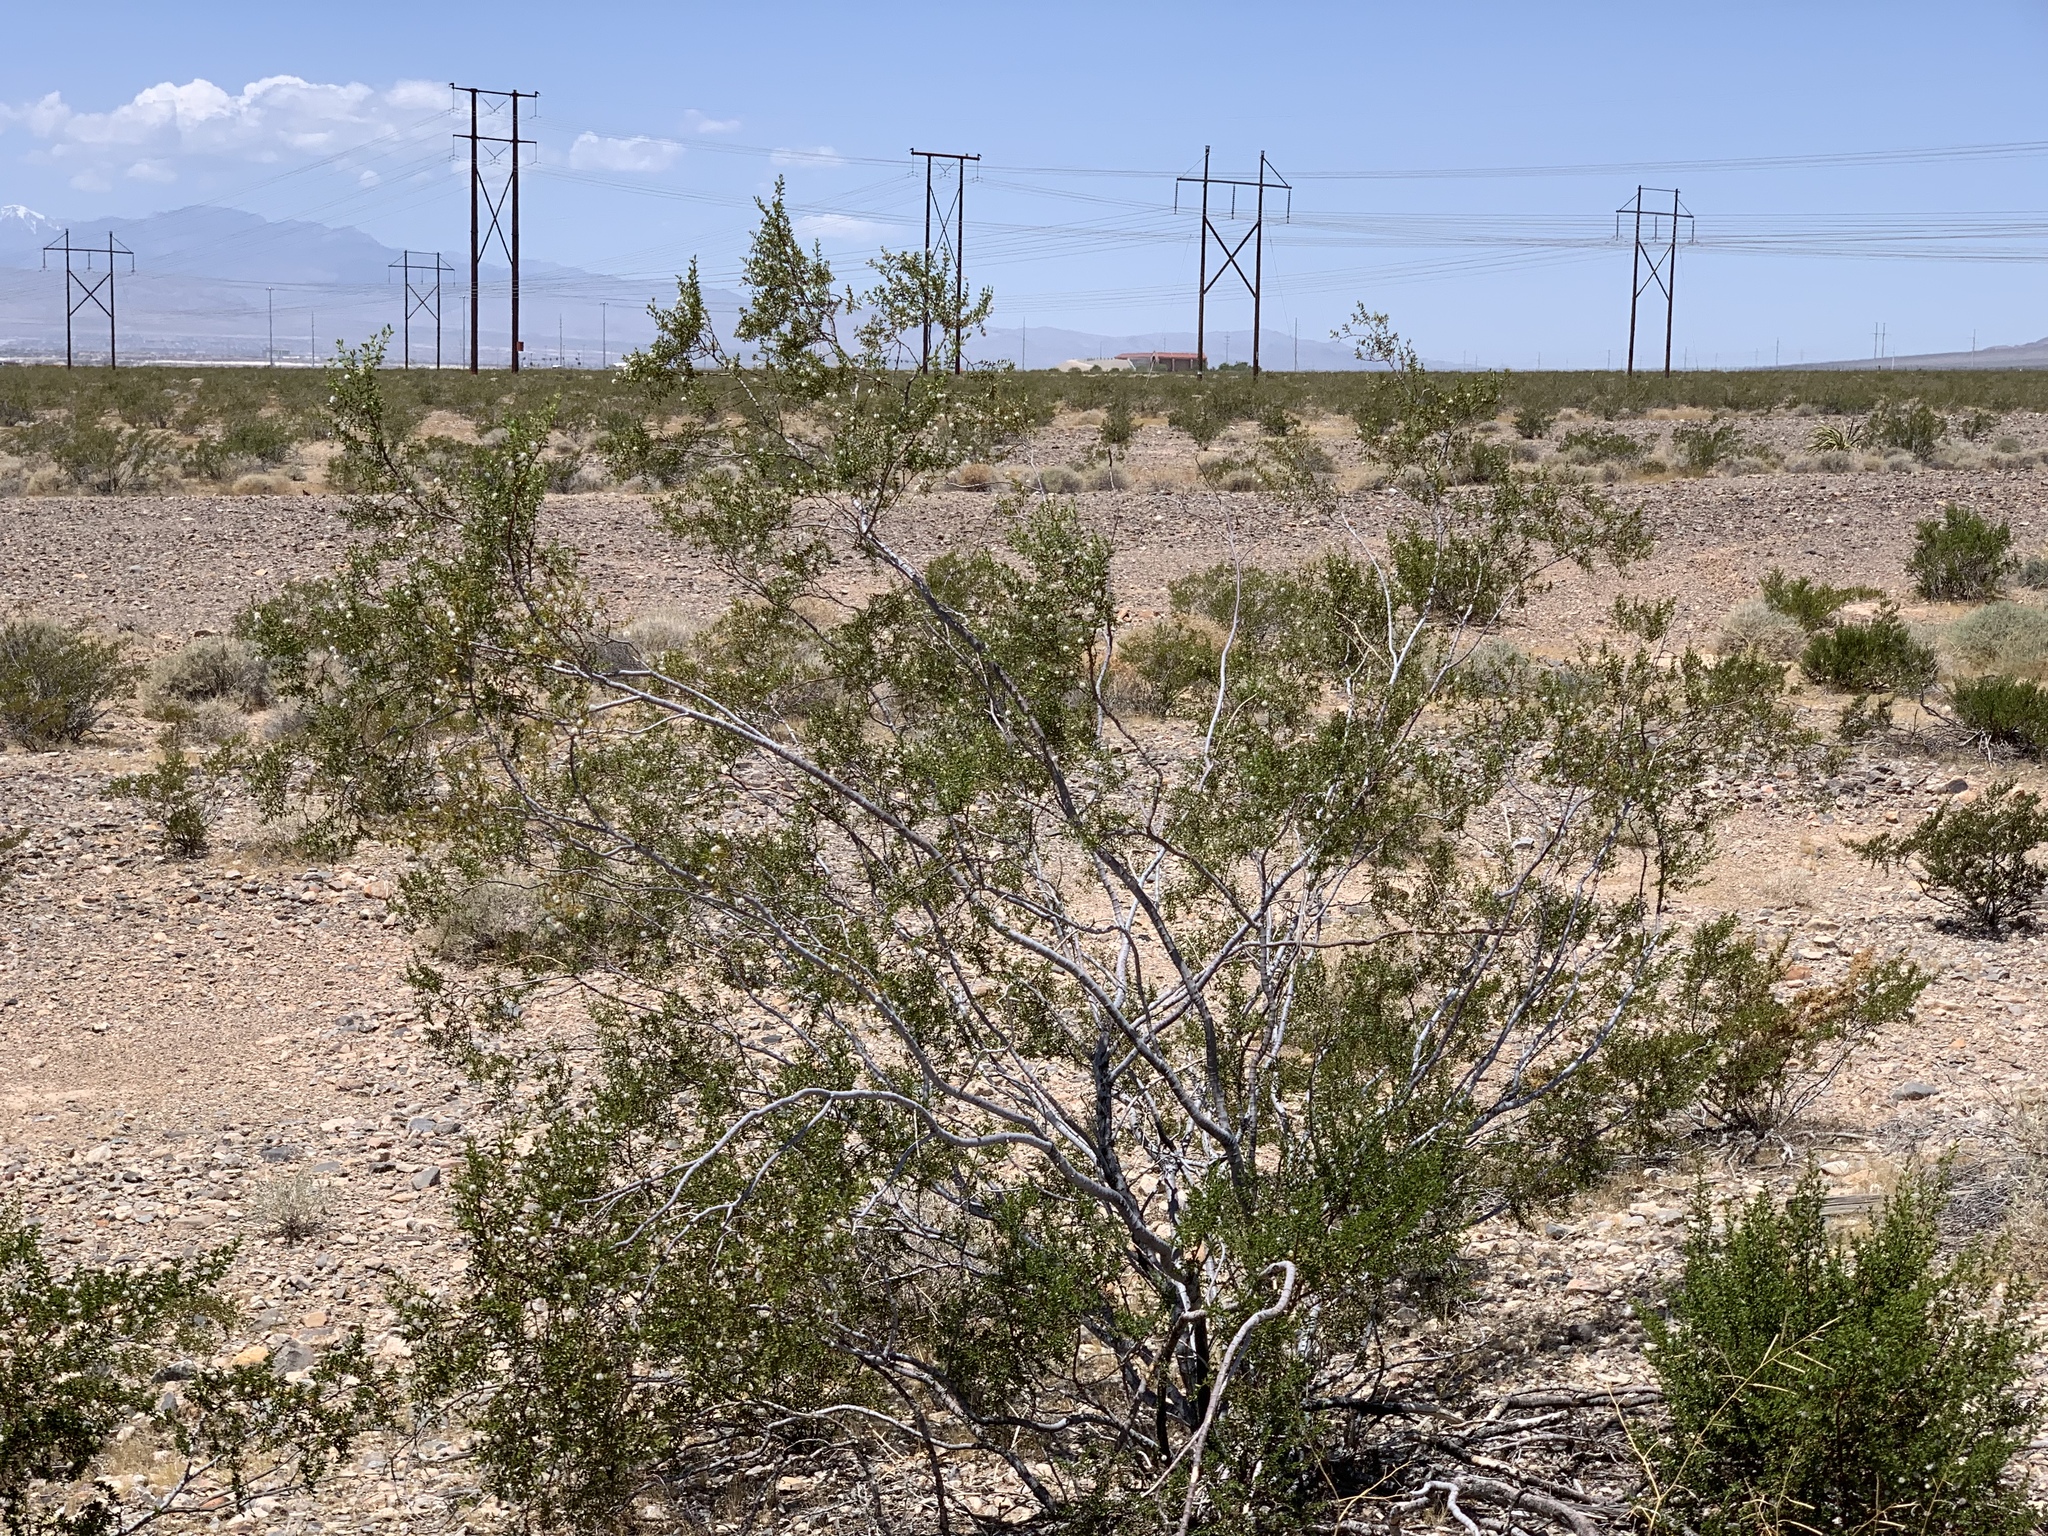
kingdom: Plantae
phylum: Tracheophyta
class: Magnoliopsida
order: Zygophyllales
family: Zygophyllaceae
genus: Larrea
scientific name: Larrea tridentata
